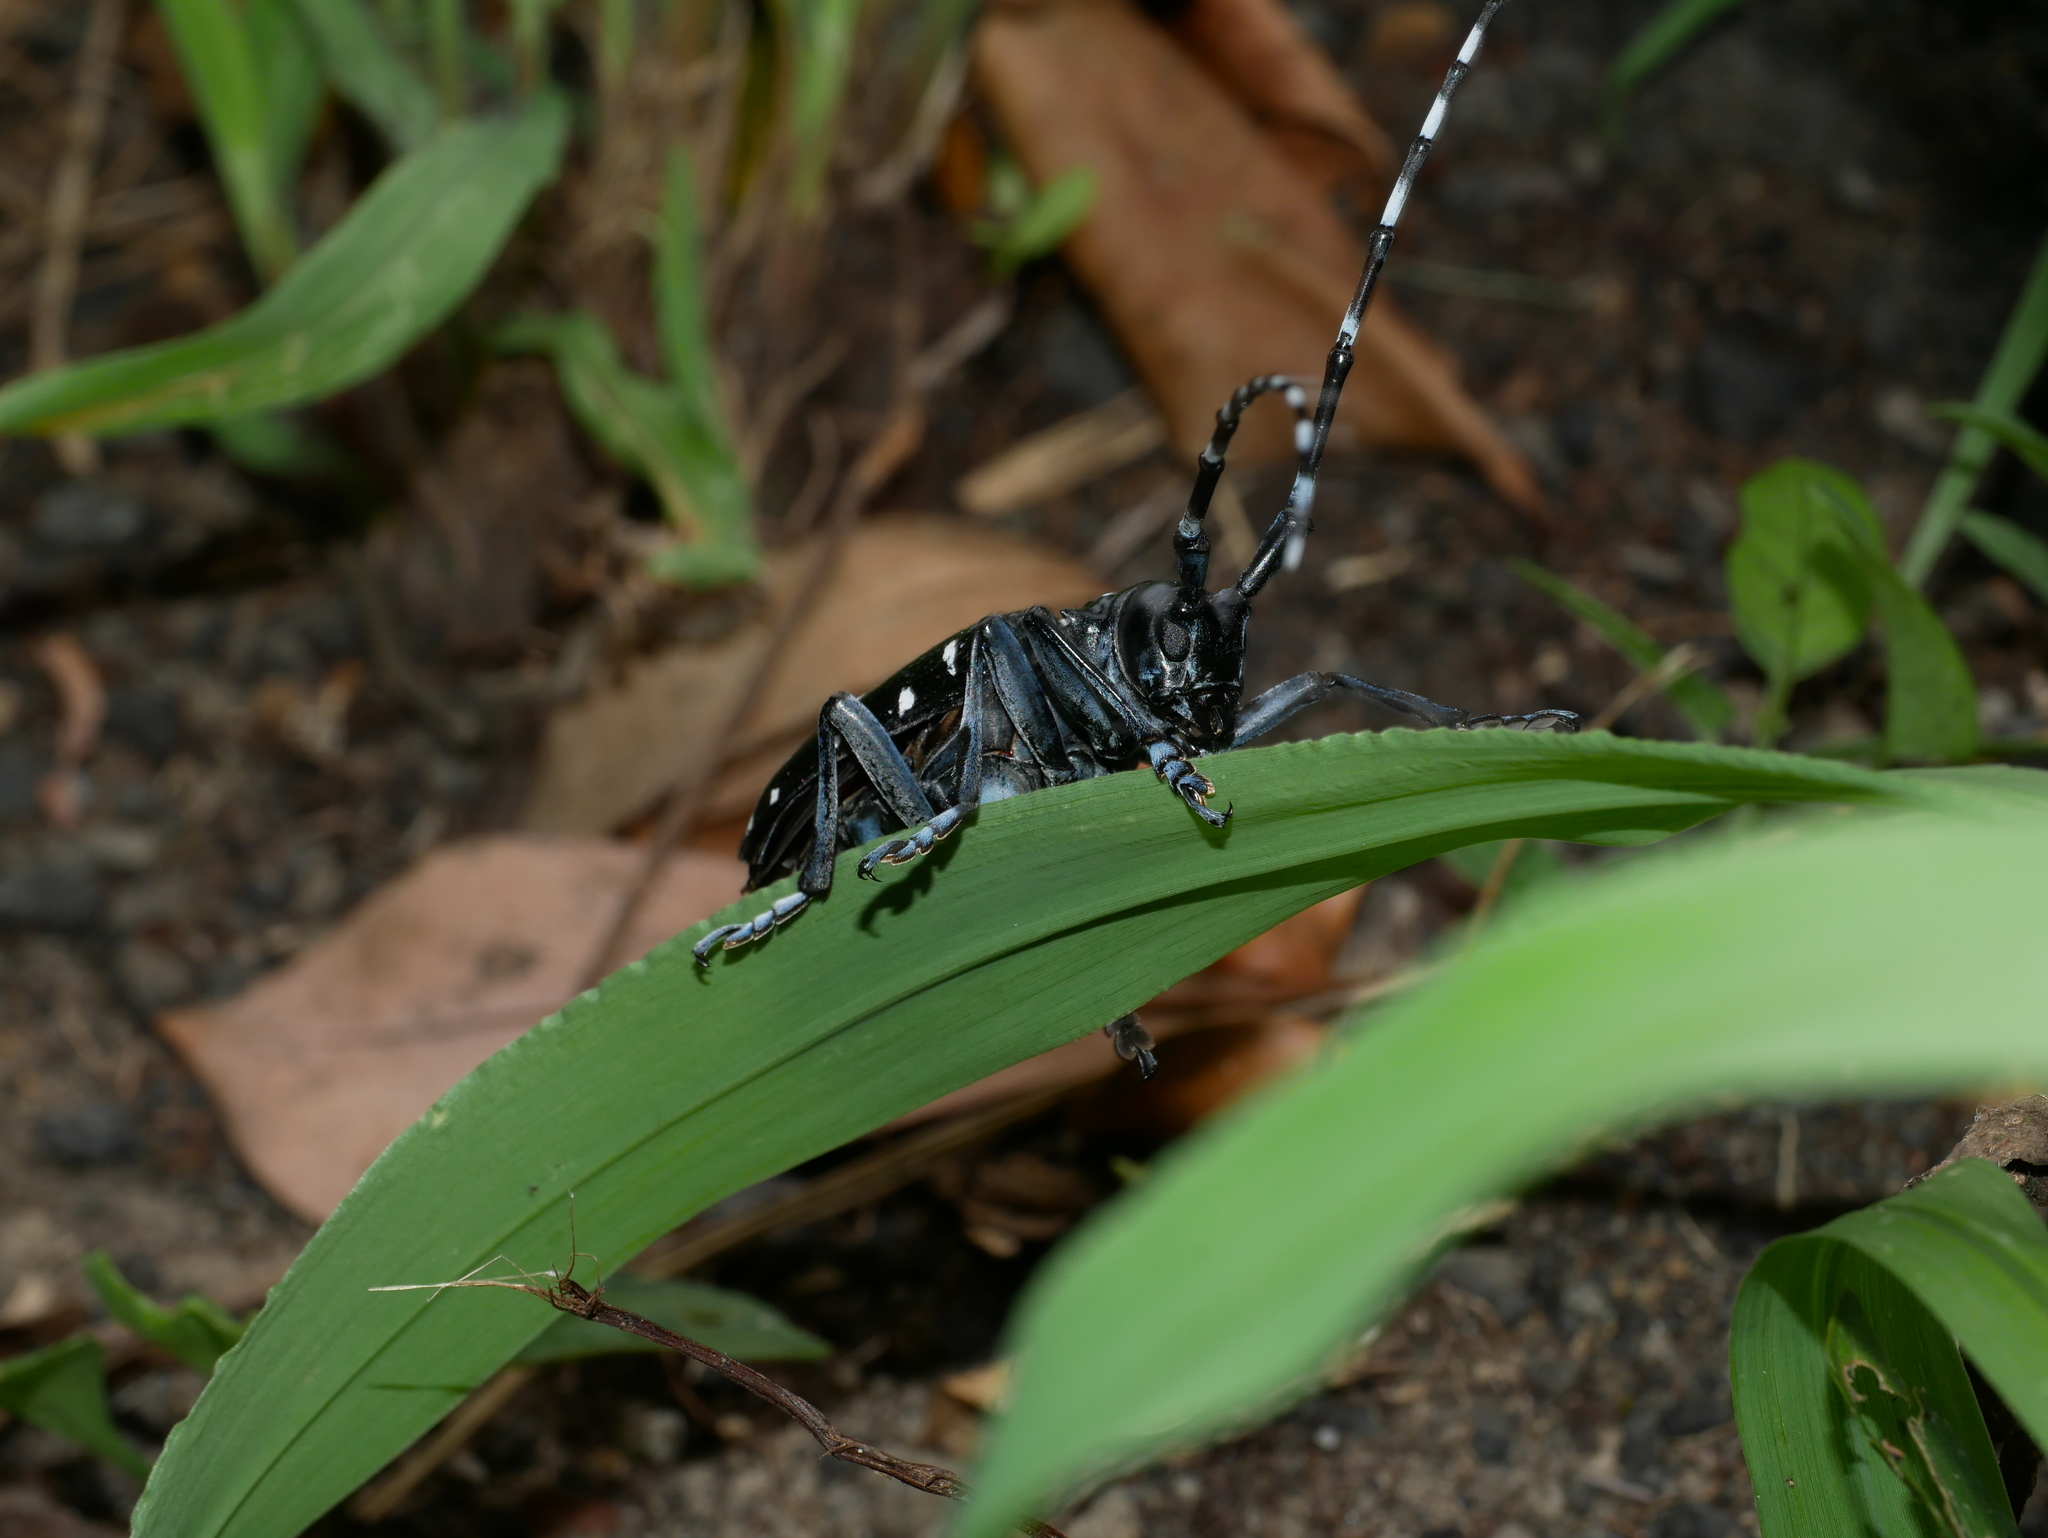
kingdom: Animalia
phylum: Arthropoda
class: Insecta
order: Coleoptera
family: Cerambycidae
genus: Anoplophora
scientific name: Anoplophora chinensis
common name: Citrus longhorned beetle
